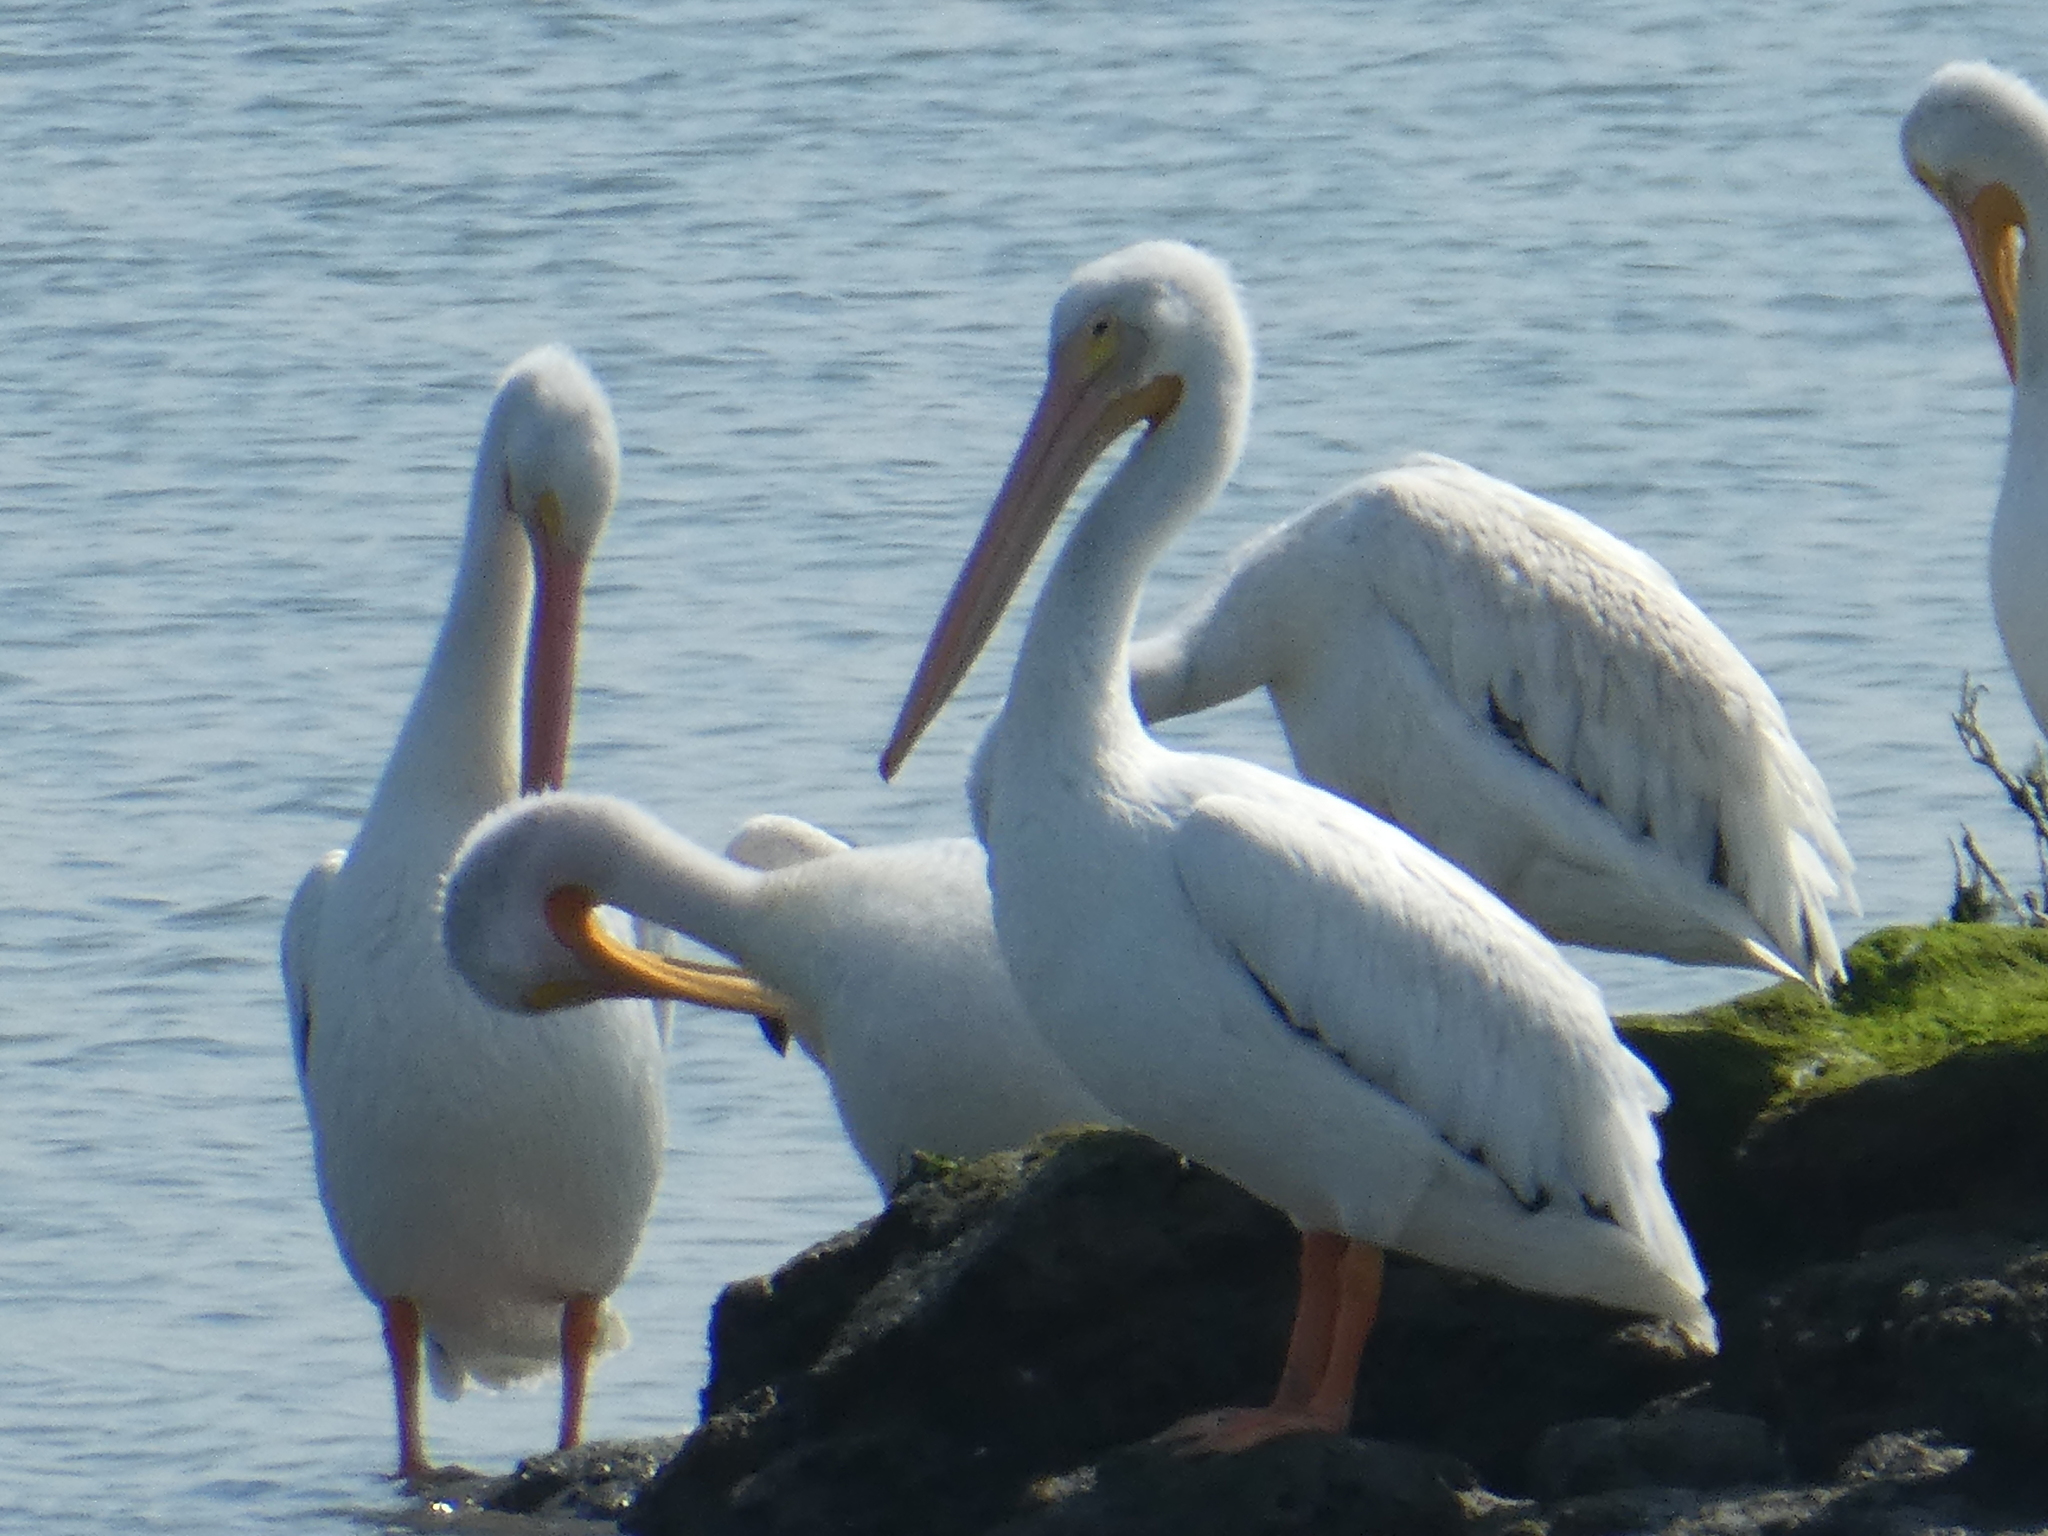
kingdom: Animalia
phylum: Chordata
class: Aves
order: Pelecaniformes
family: Pelecanidae
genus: Pelecanus
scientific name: Pelecanus erythrorhynchos
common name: American white pelican
